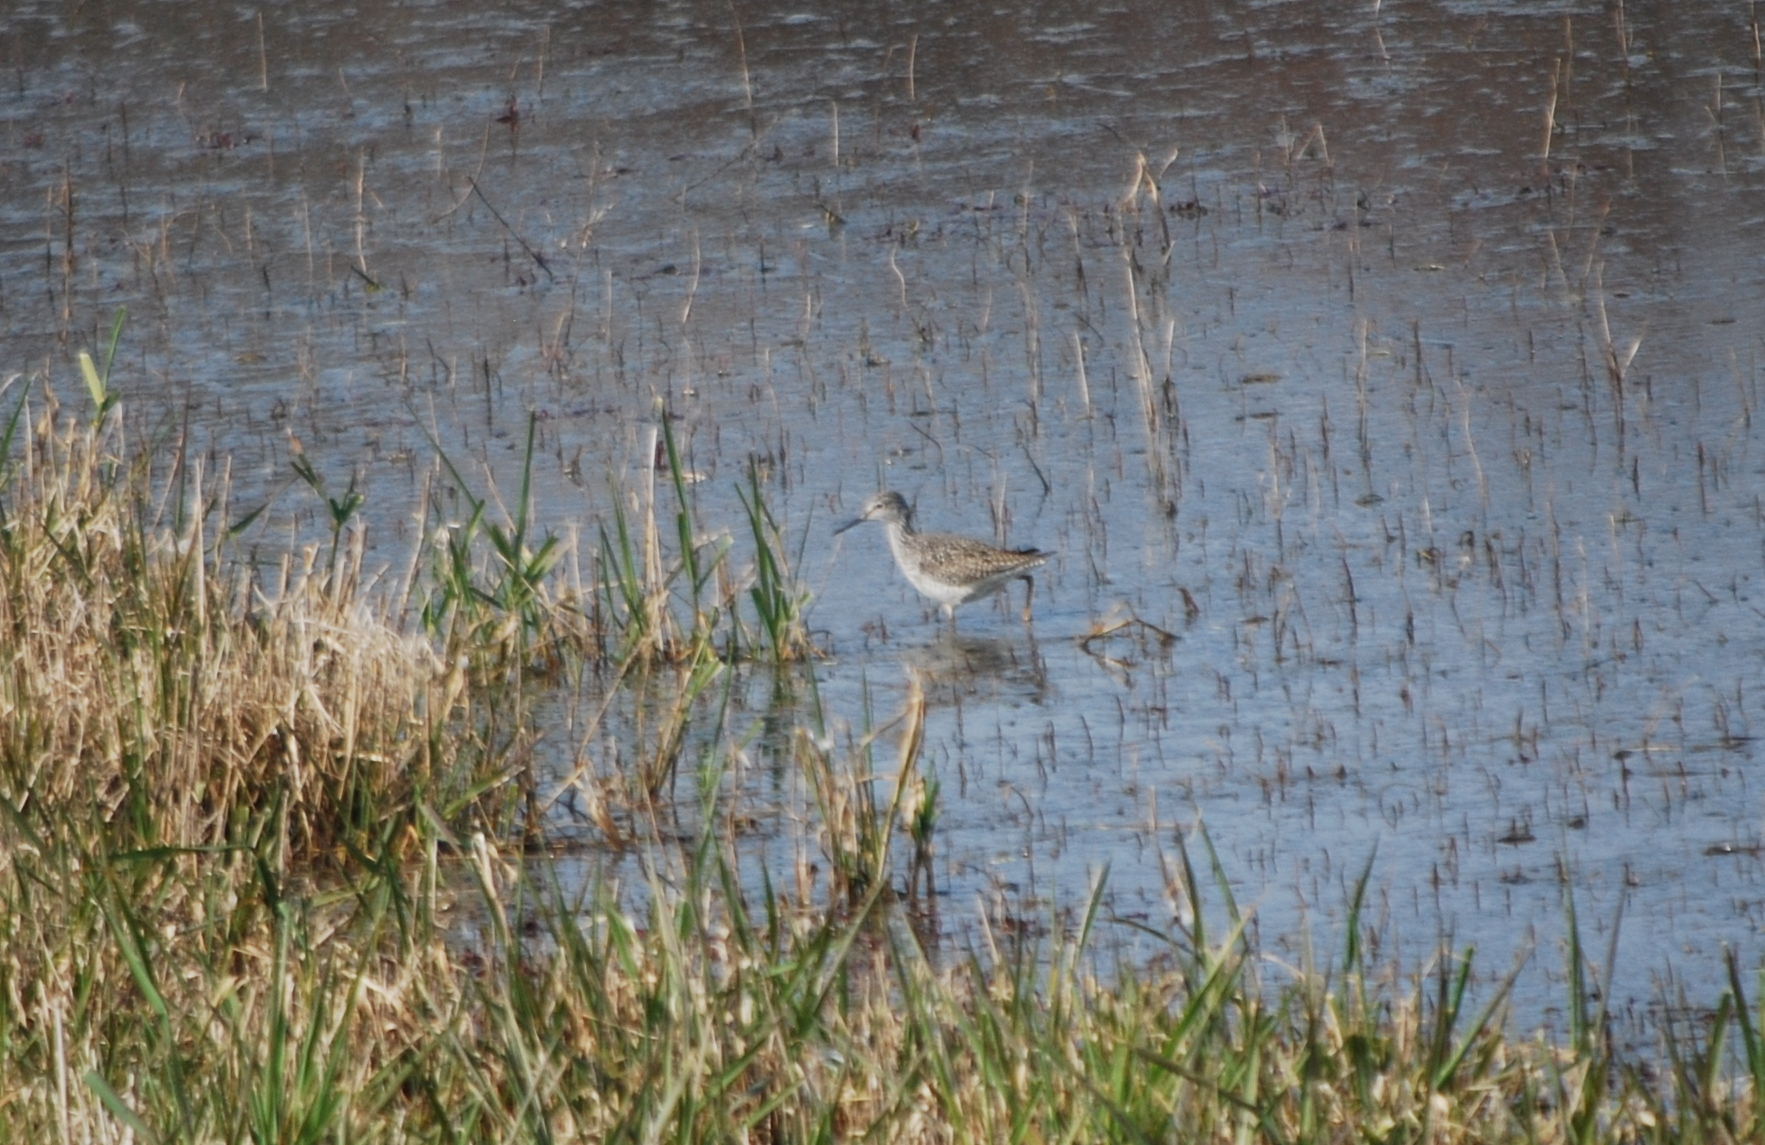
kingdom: Animalia
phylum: Chordata
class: Aves
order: Charadriiformes
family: Scolopacidae
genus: Tringa
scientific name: Tringa flavipes
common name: Lesser yellowlegs
